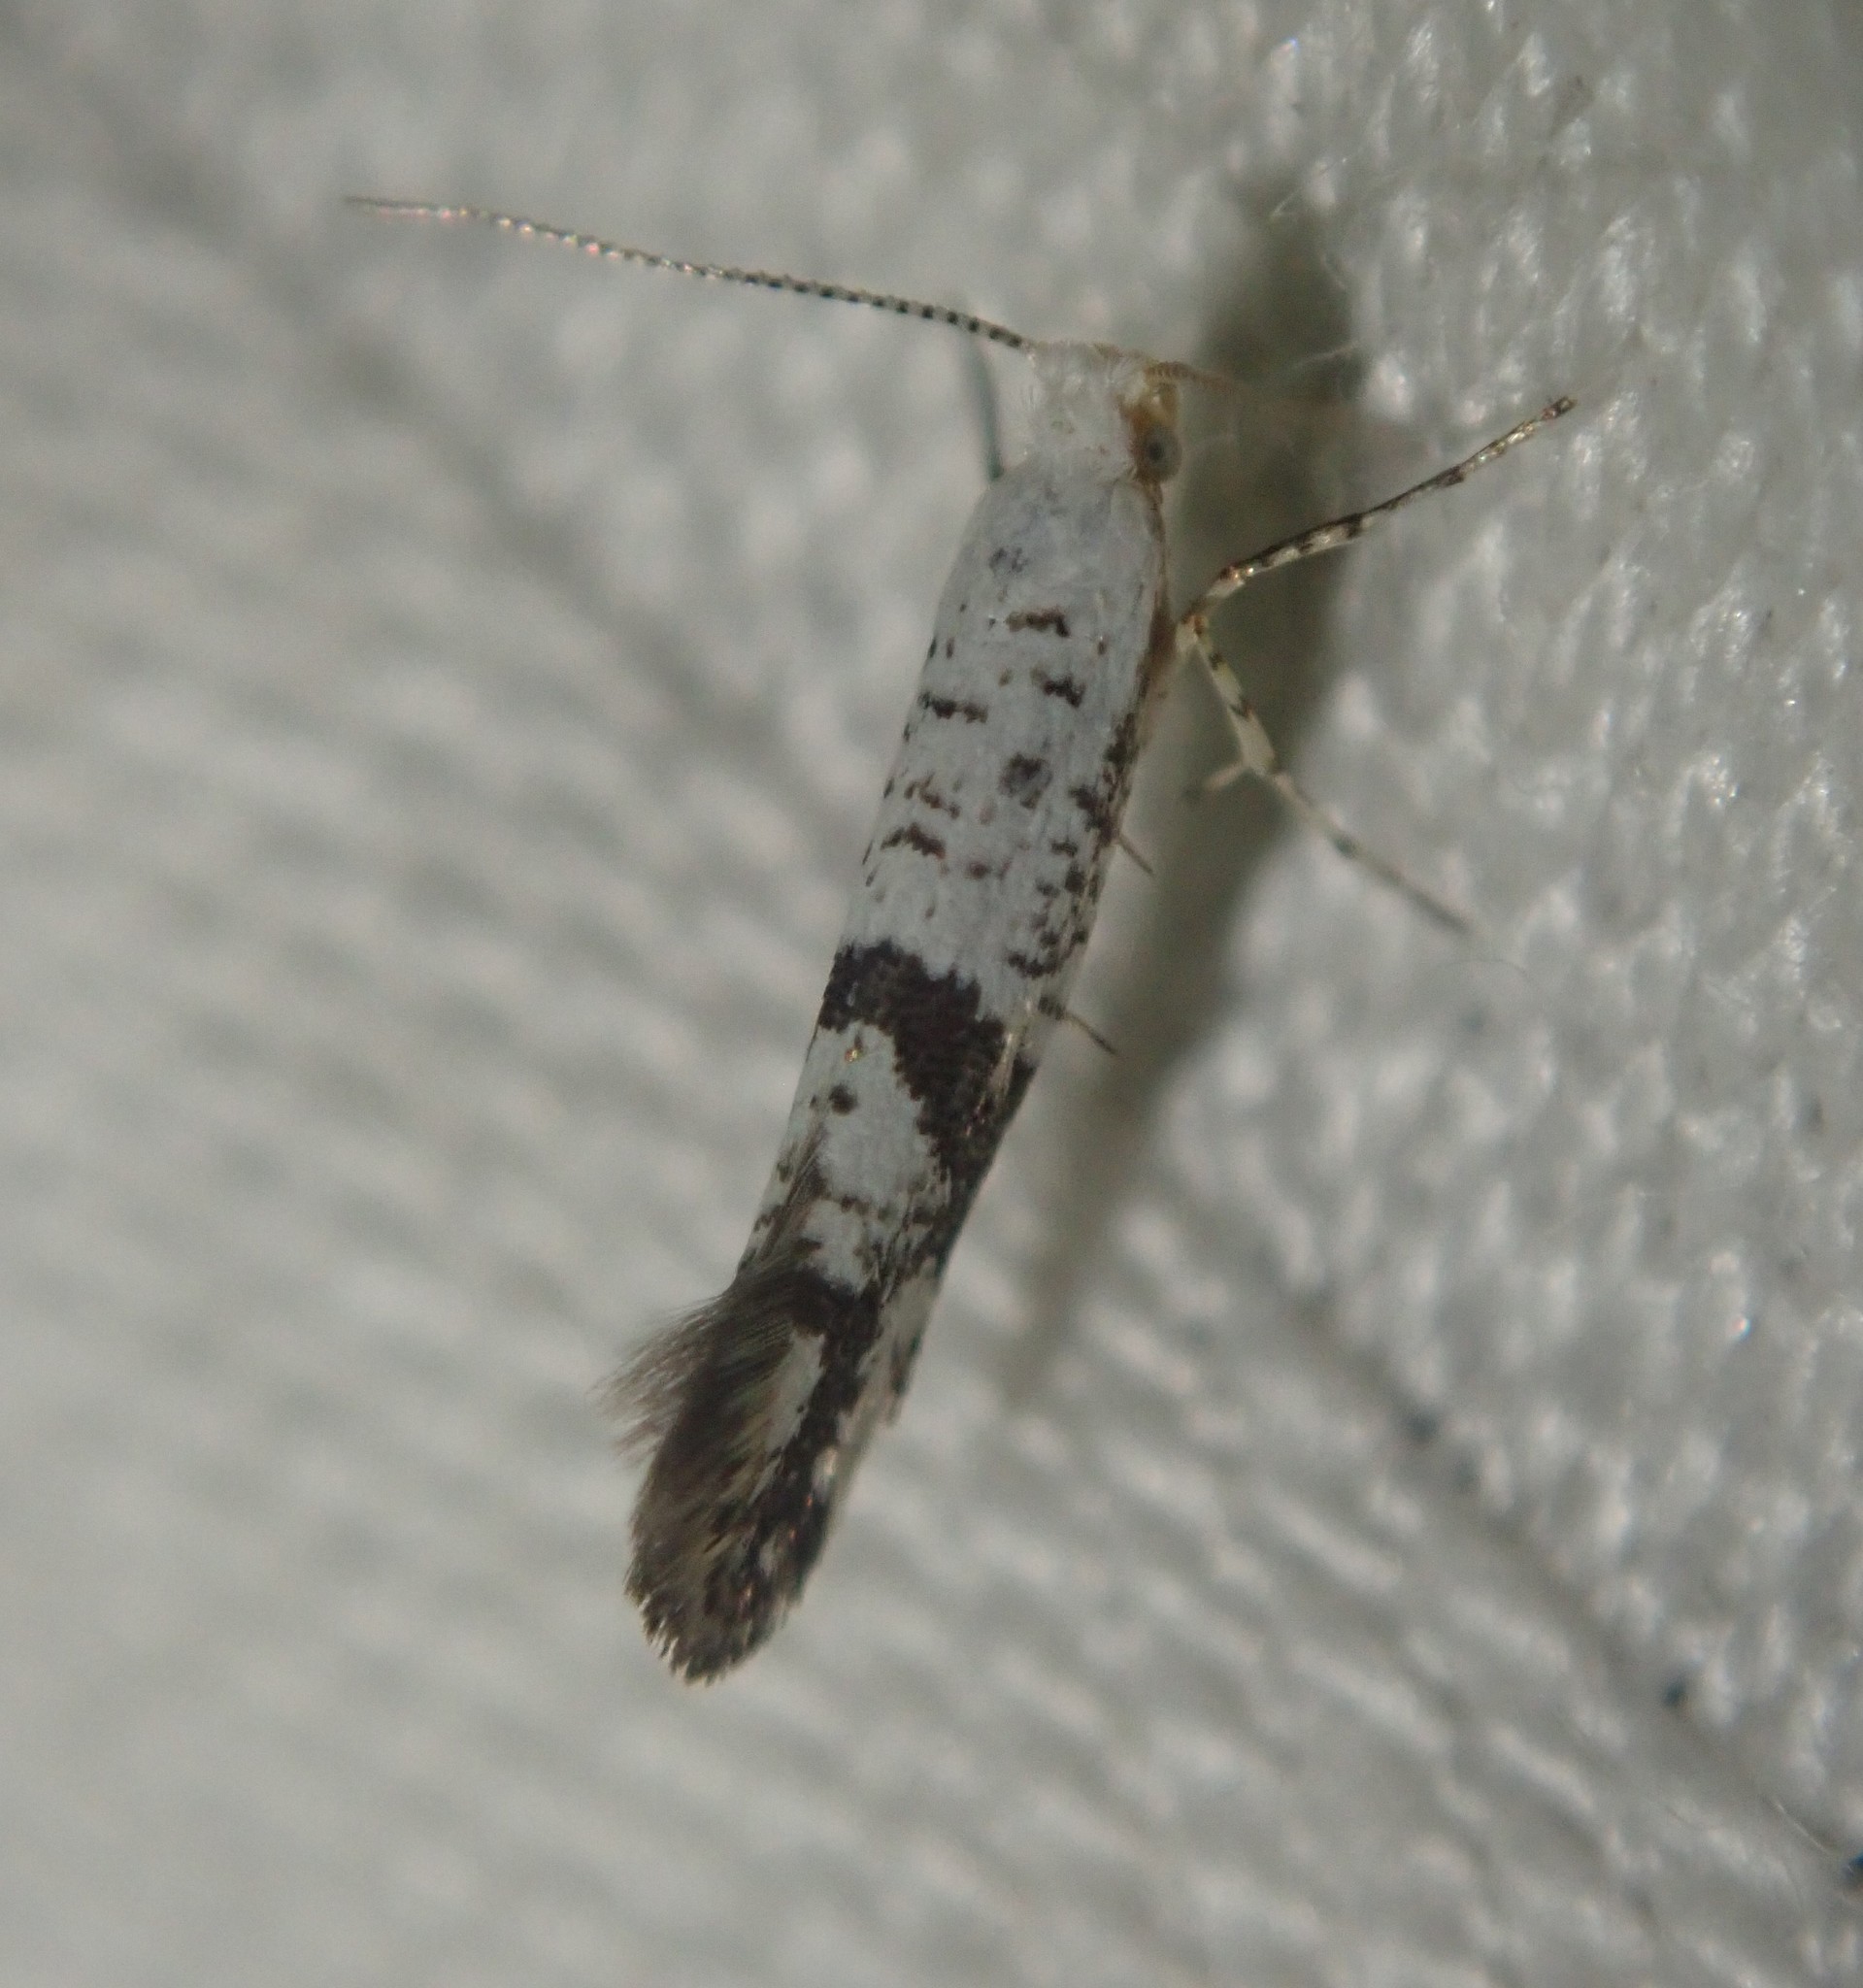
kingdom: Animalia
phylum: Arthropoda
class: Insecta
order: Lepidoptera
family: Argyresthiidae
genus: Argyresthia
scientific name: Argyresthia curvella
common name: Brindled argent
